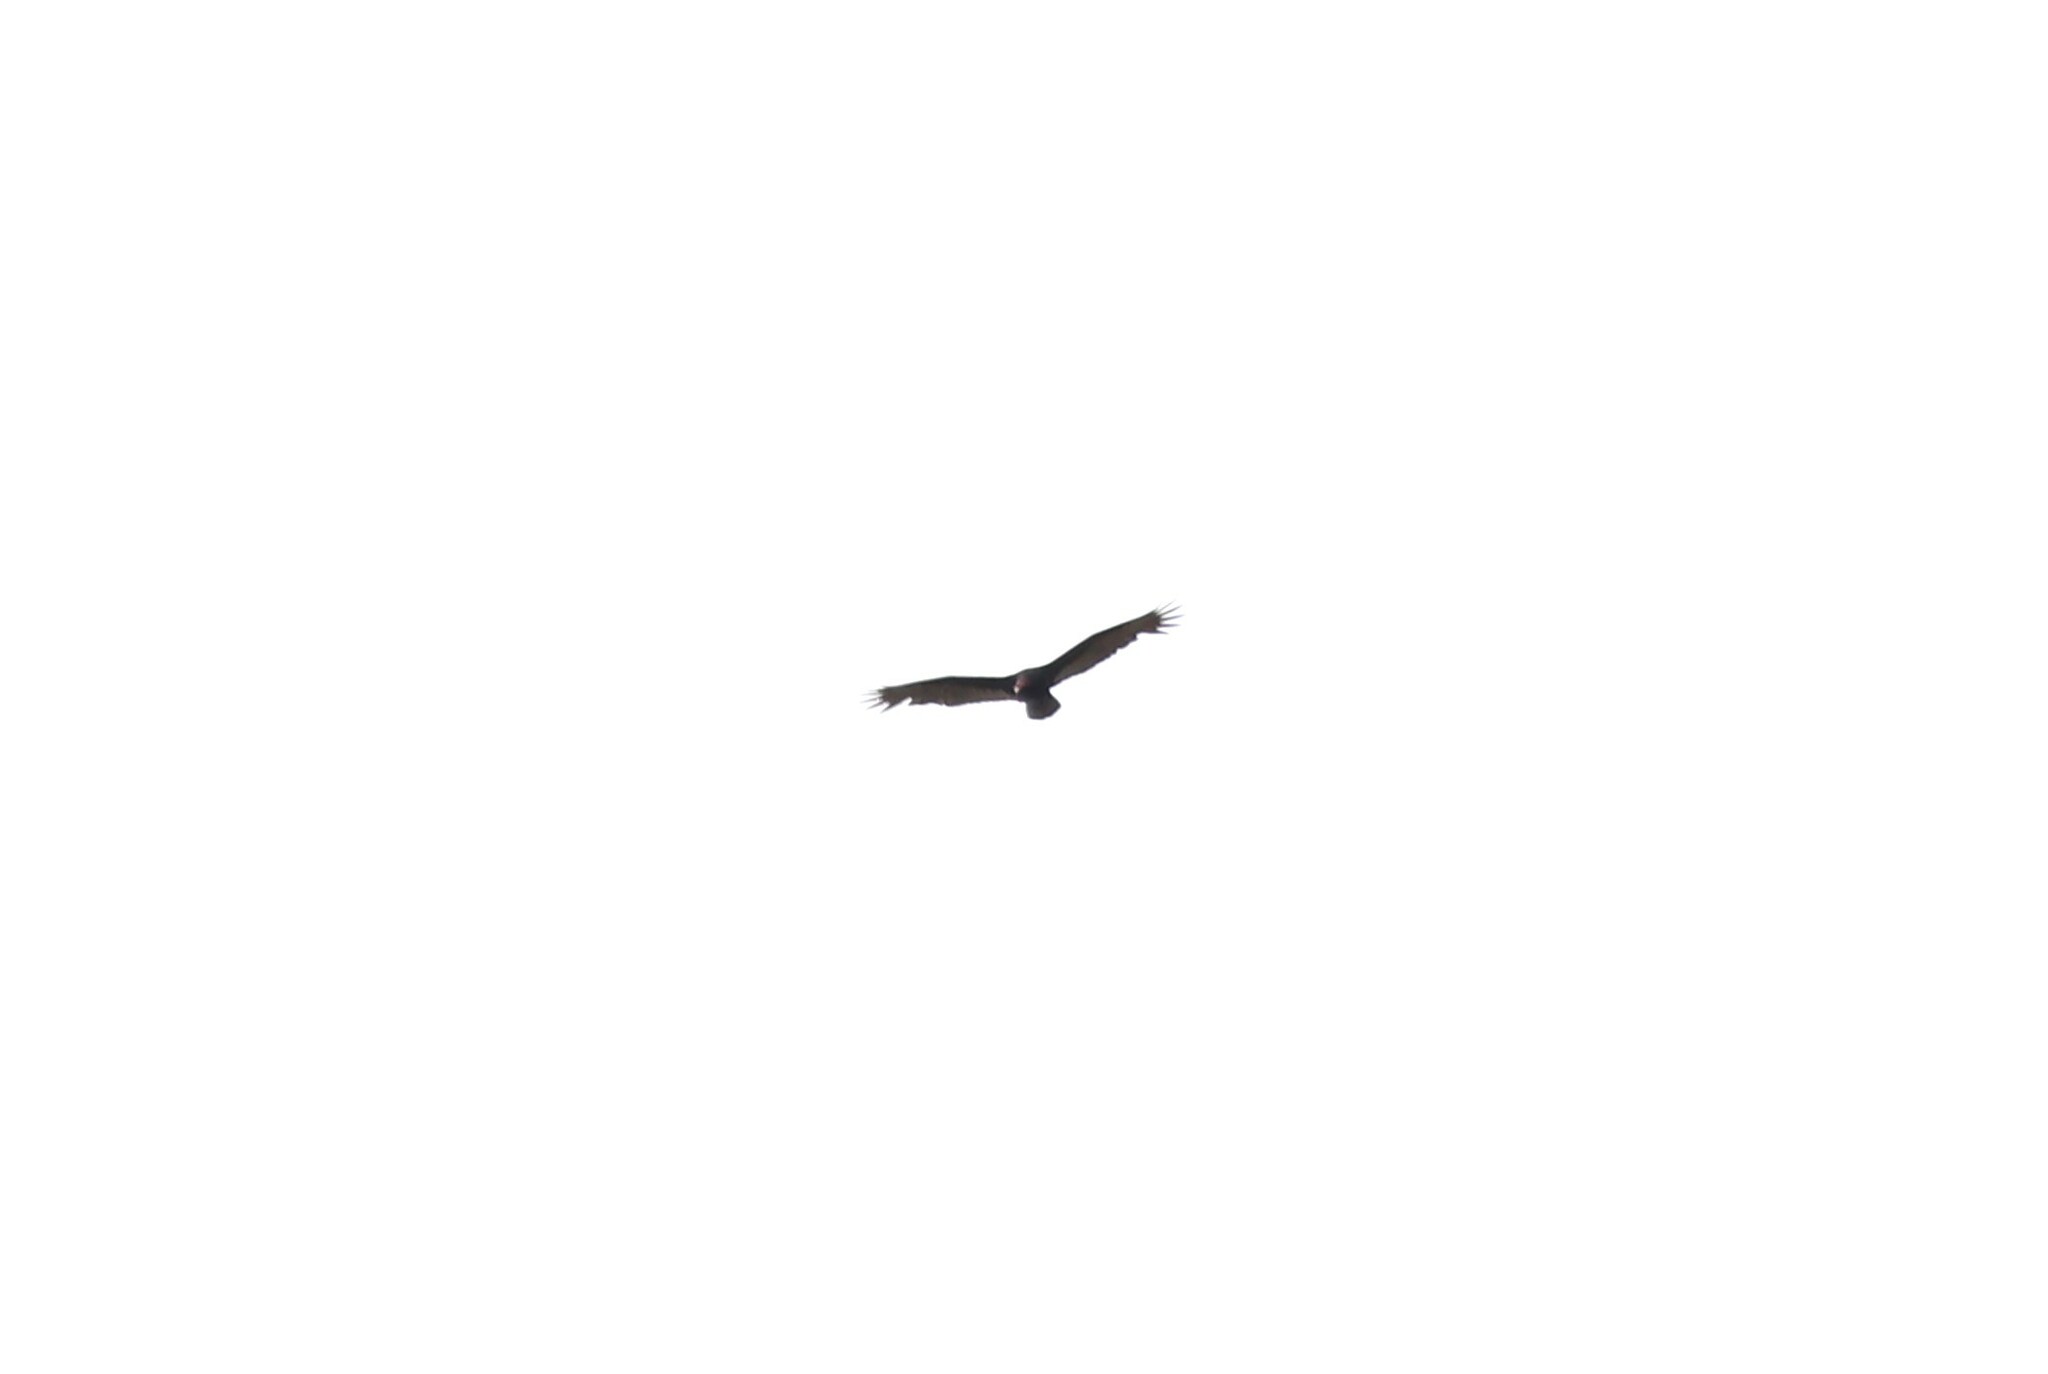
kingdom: Animalia
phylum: Chordata
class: Aves
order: Accipitriformes
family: Cathartidae
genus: Cathartes
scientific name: Cathartes aura
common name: Turkey vulture
